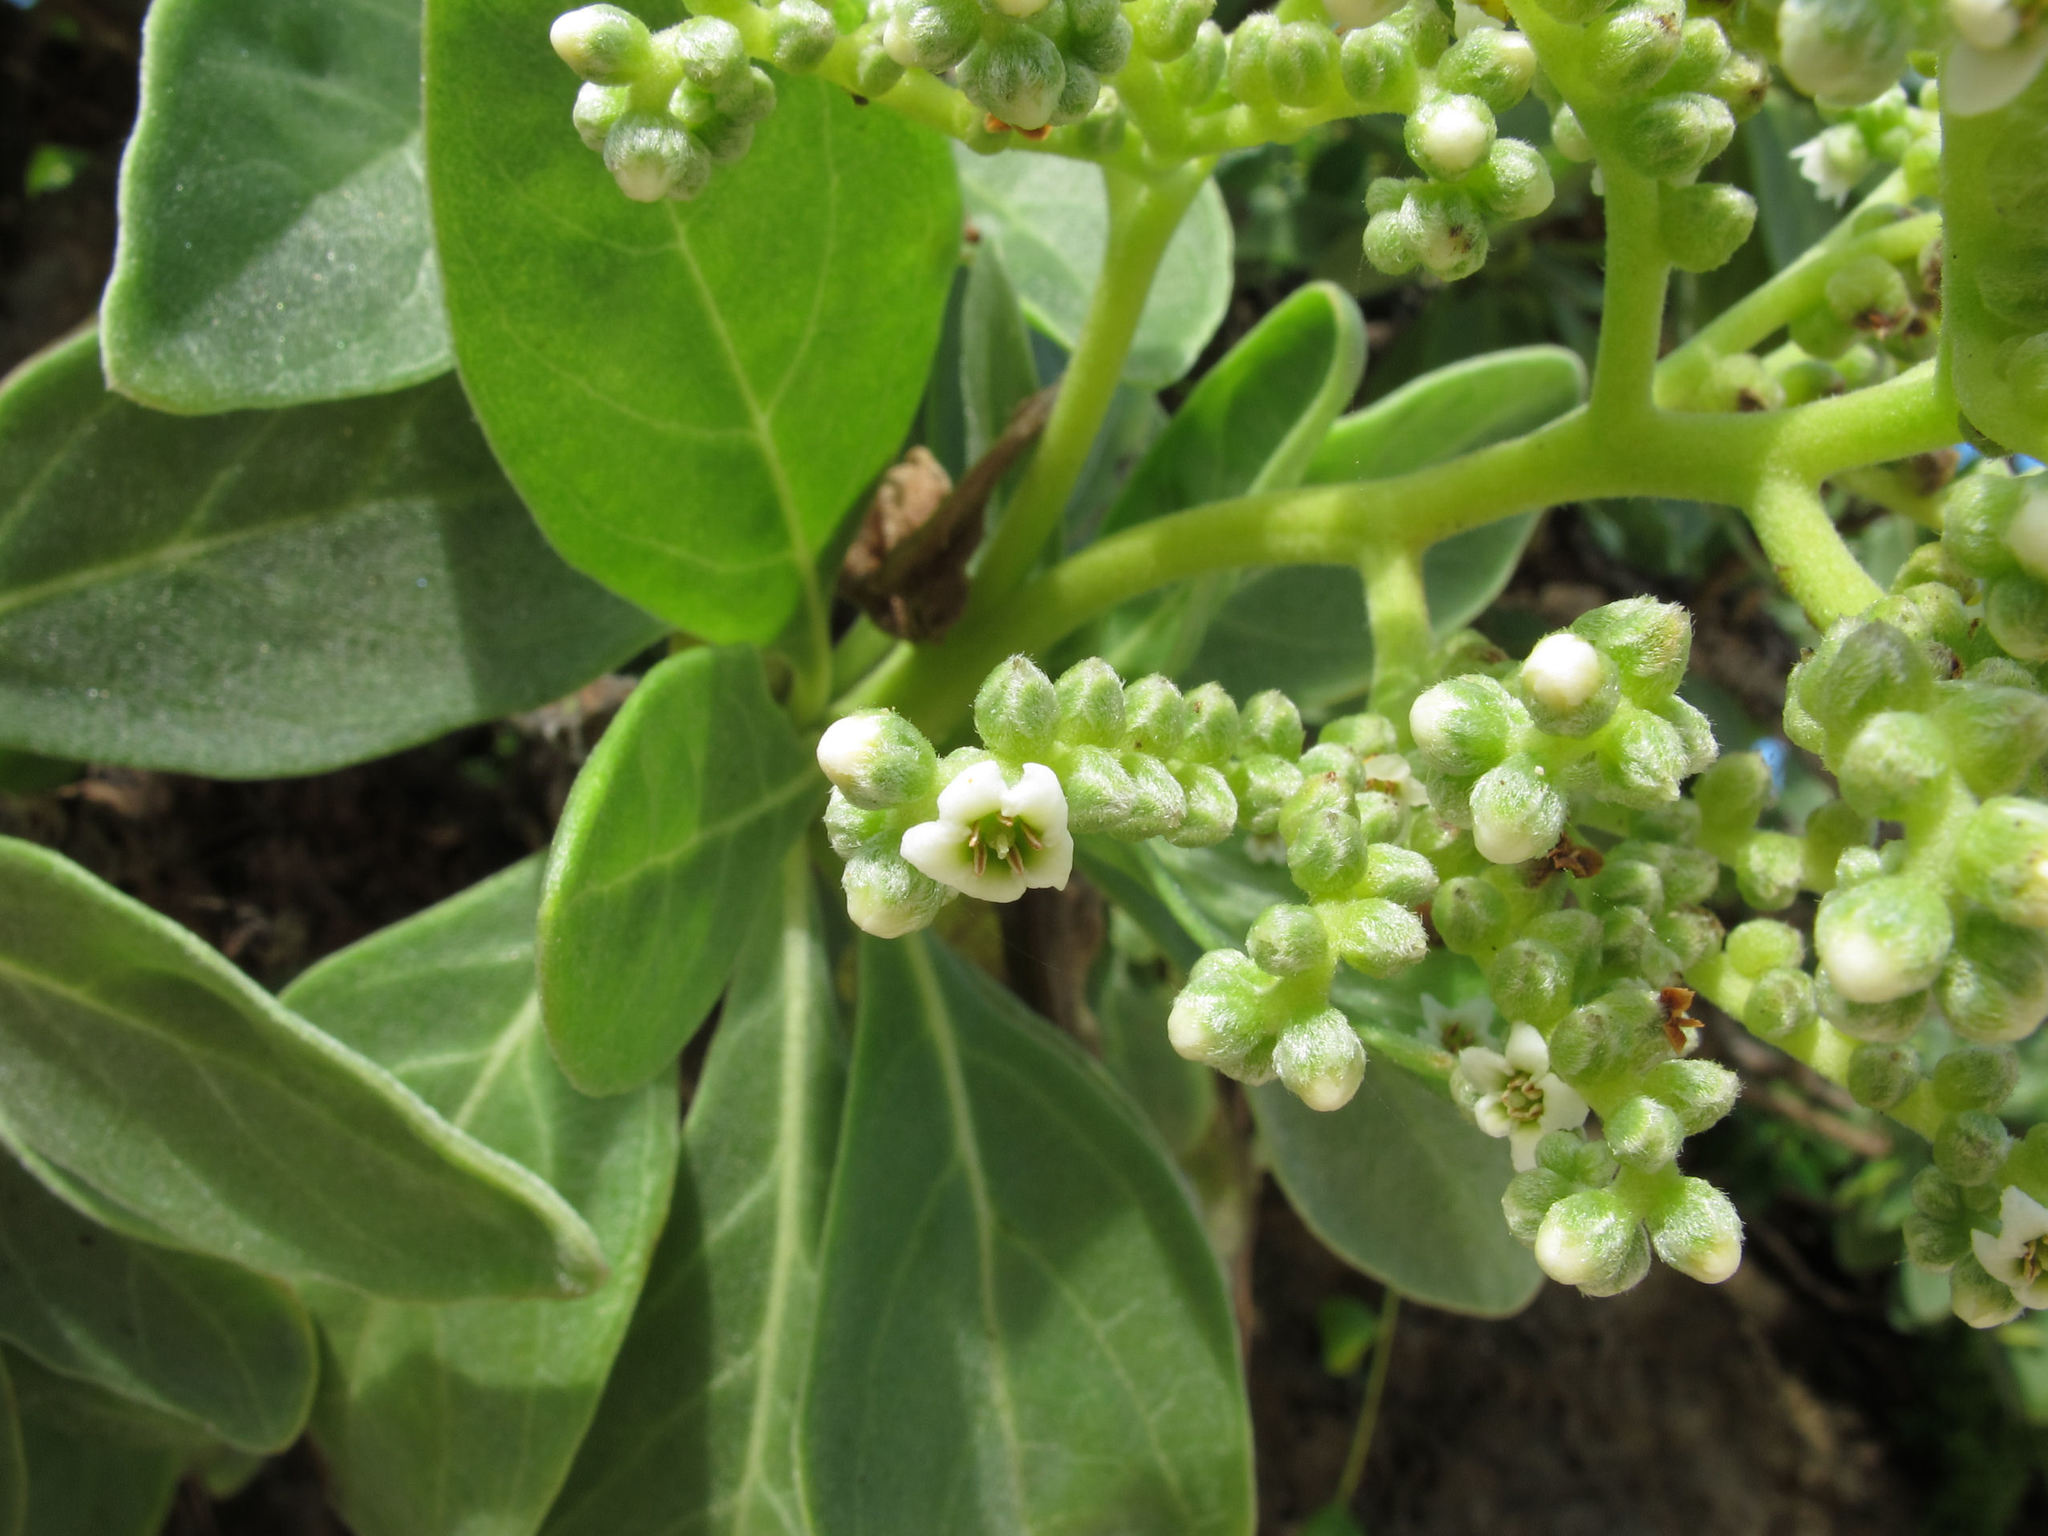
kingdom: Plantae
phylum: Tracheophyta
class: Magnoliopsida
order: Boraginales
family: Heliotropiaceae
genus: Heliotropium
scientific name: Heliotropium velutinum
